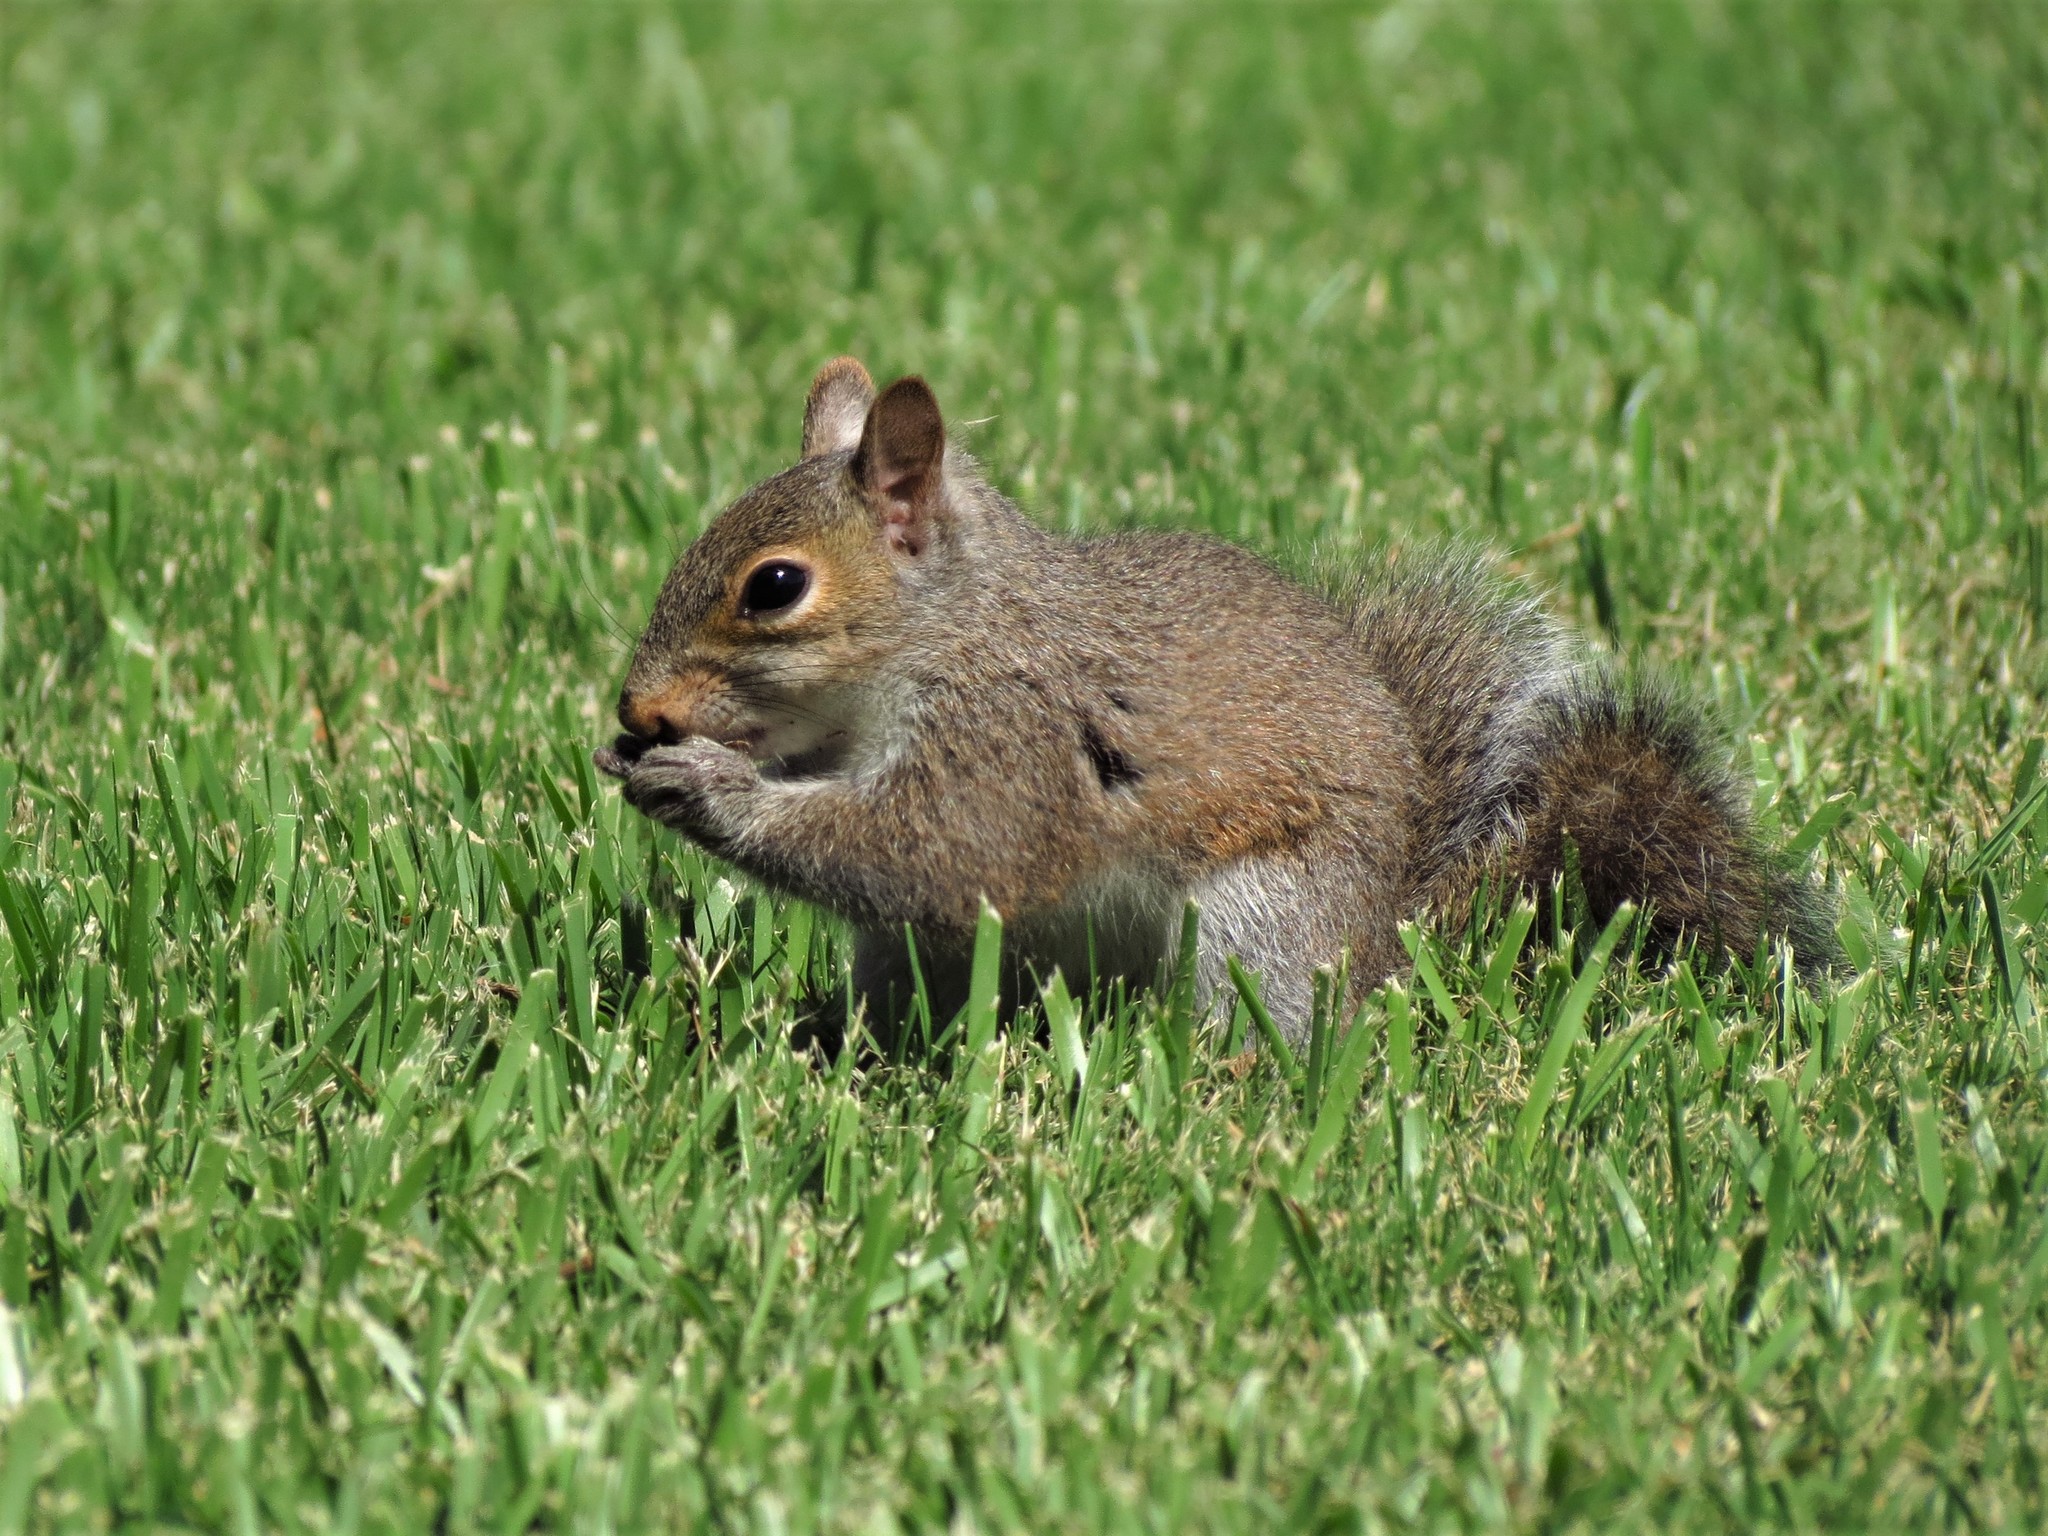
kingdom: Animalia
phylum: Chordata
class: Mammalia
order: Rodentia
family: Sciuridae
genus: Sciurus
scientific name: Sciurus carolinensis
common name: Eastern gray squirrel
